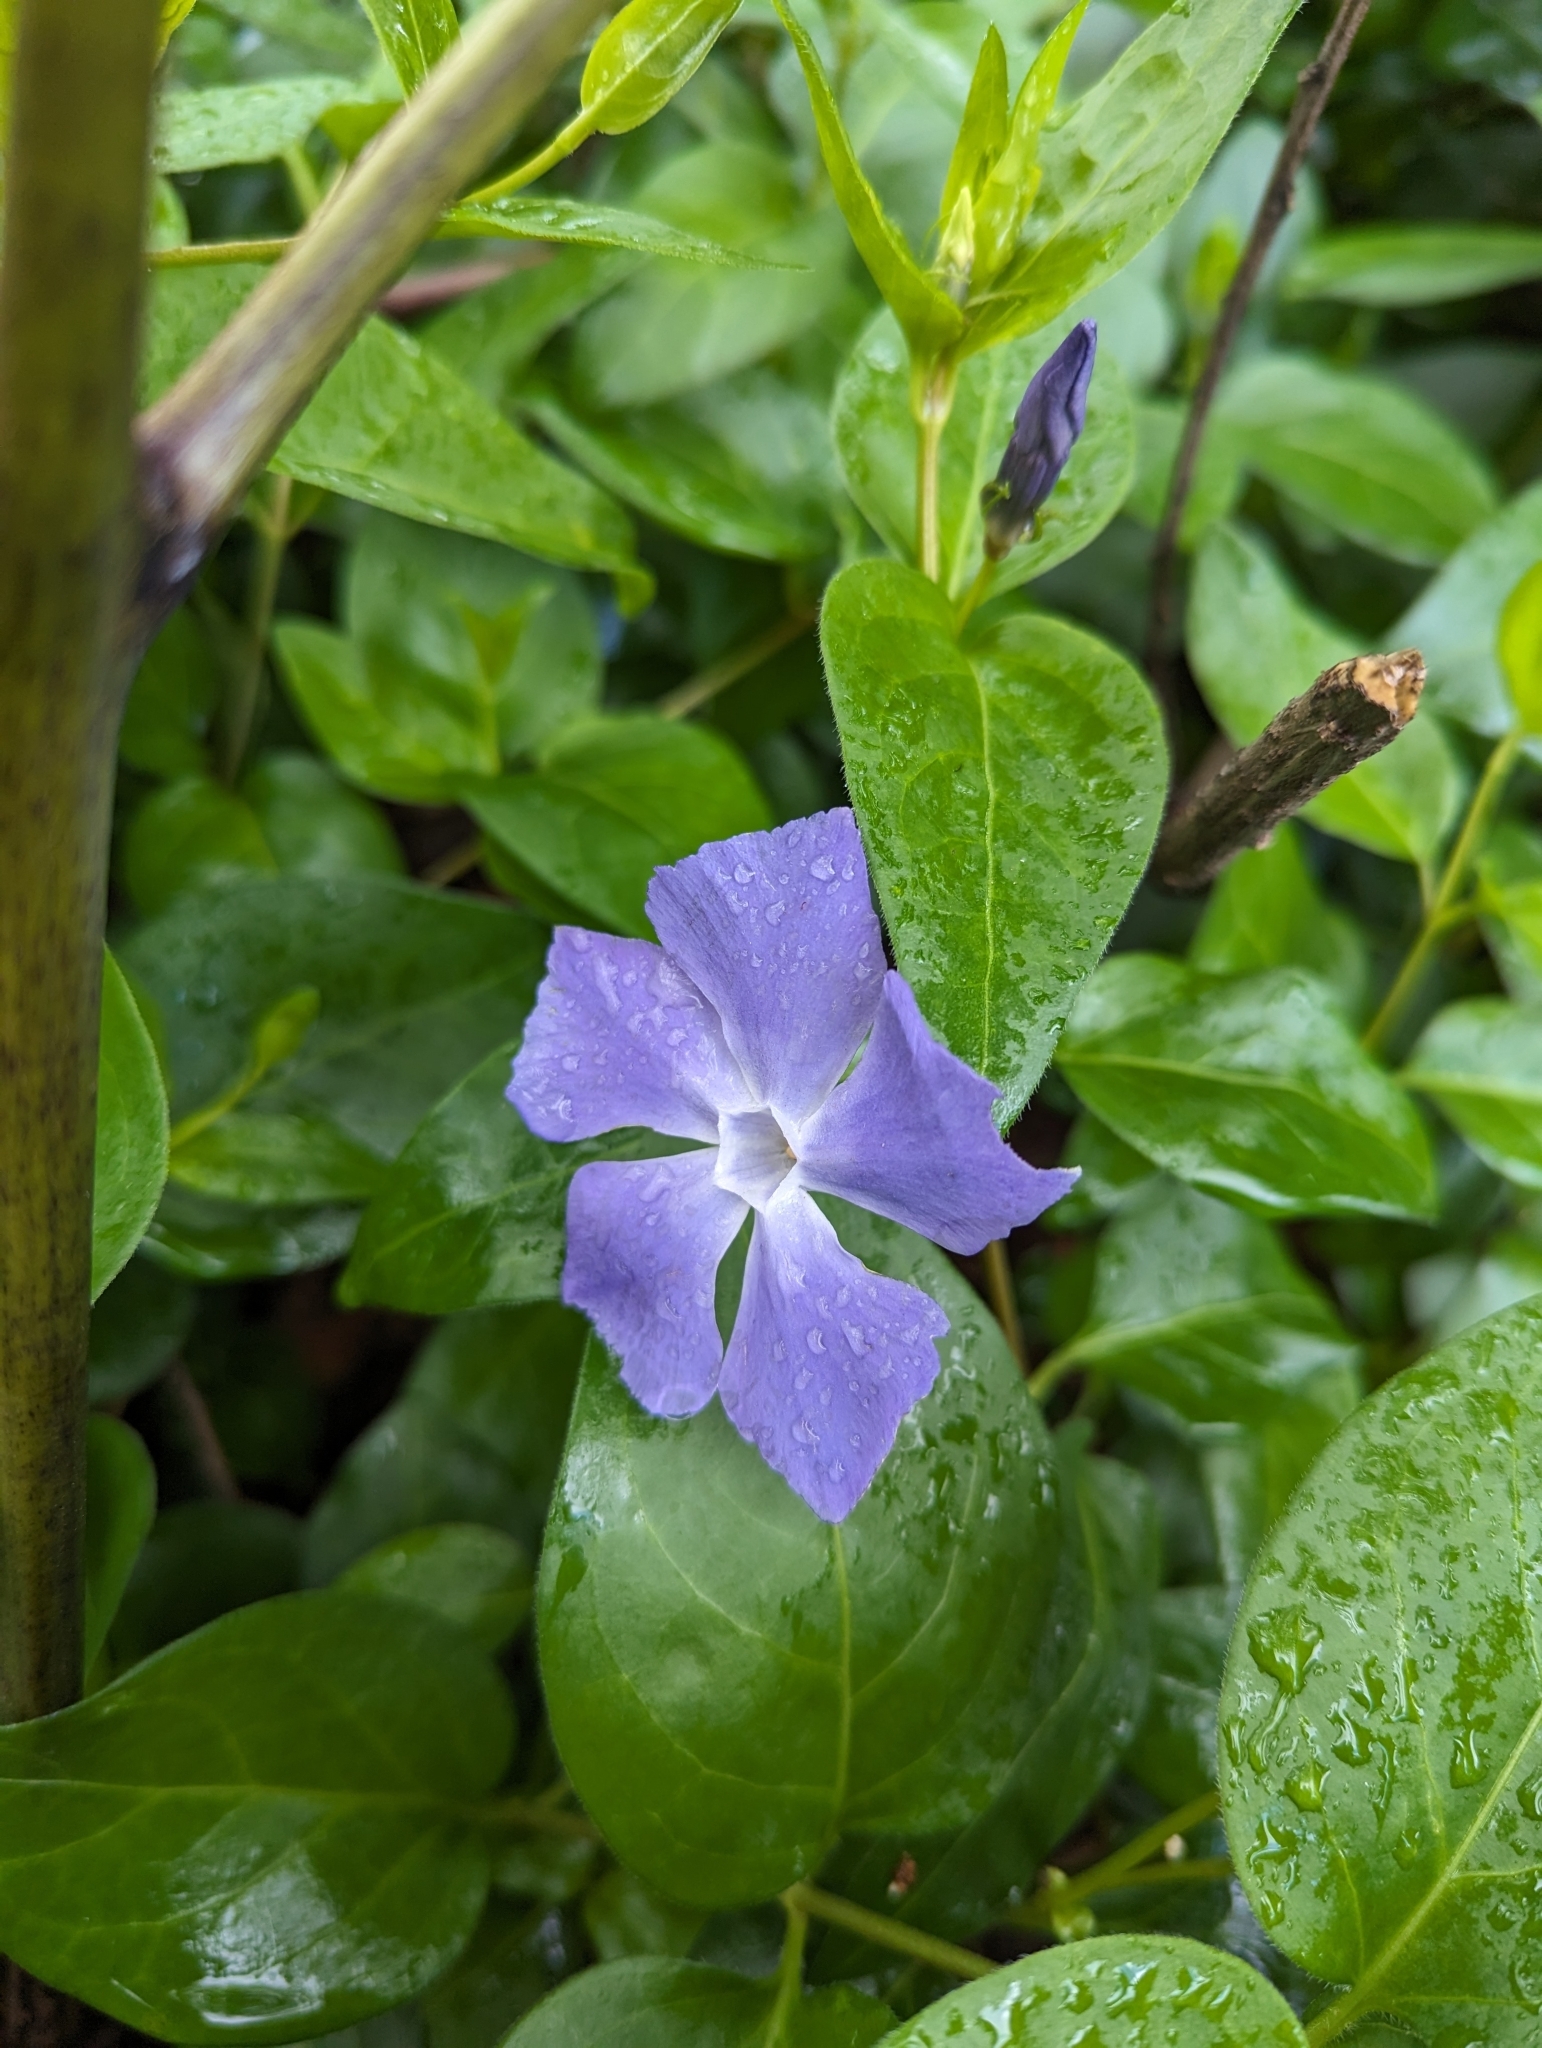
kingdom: Plantae
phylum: Tracheophyta
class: Magnoliopsida
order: Gentianales
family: Apocynaceae
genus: Vinca
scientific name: Vinca major
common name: Greater periwinkle
